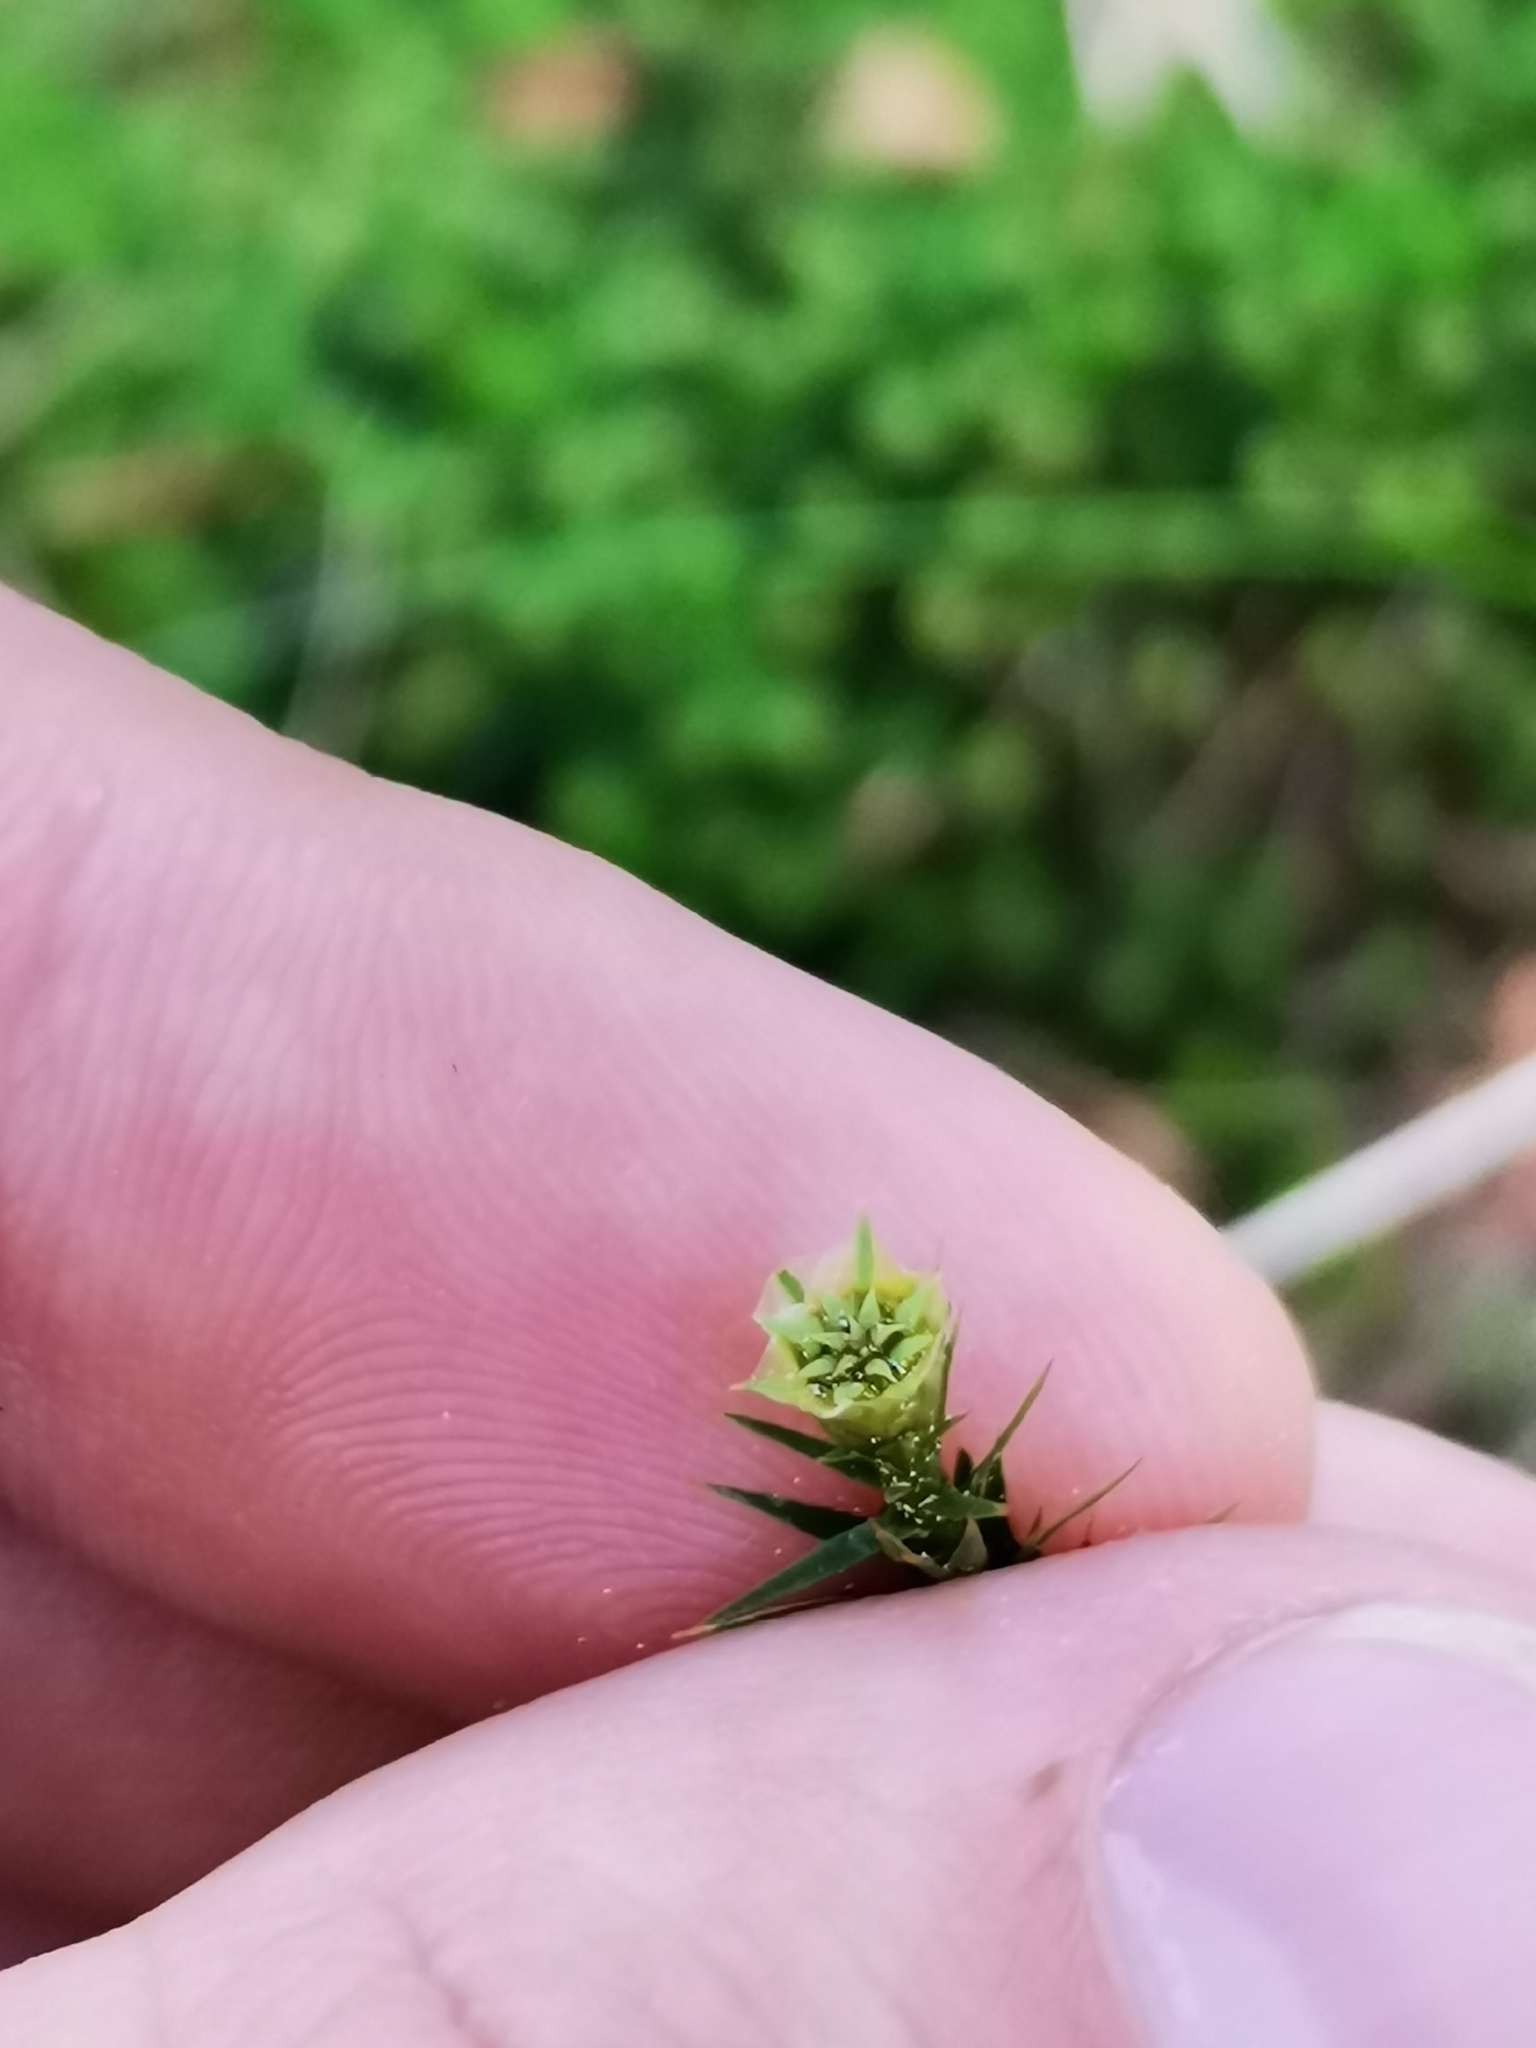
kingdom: Plantae
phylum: Bryophyta
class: Polytrichopsida
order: Polytrichales
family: Polytrichaceae
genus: Polytrichum
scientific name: Polytrichum formosum
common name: Bank haircap moss
